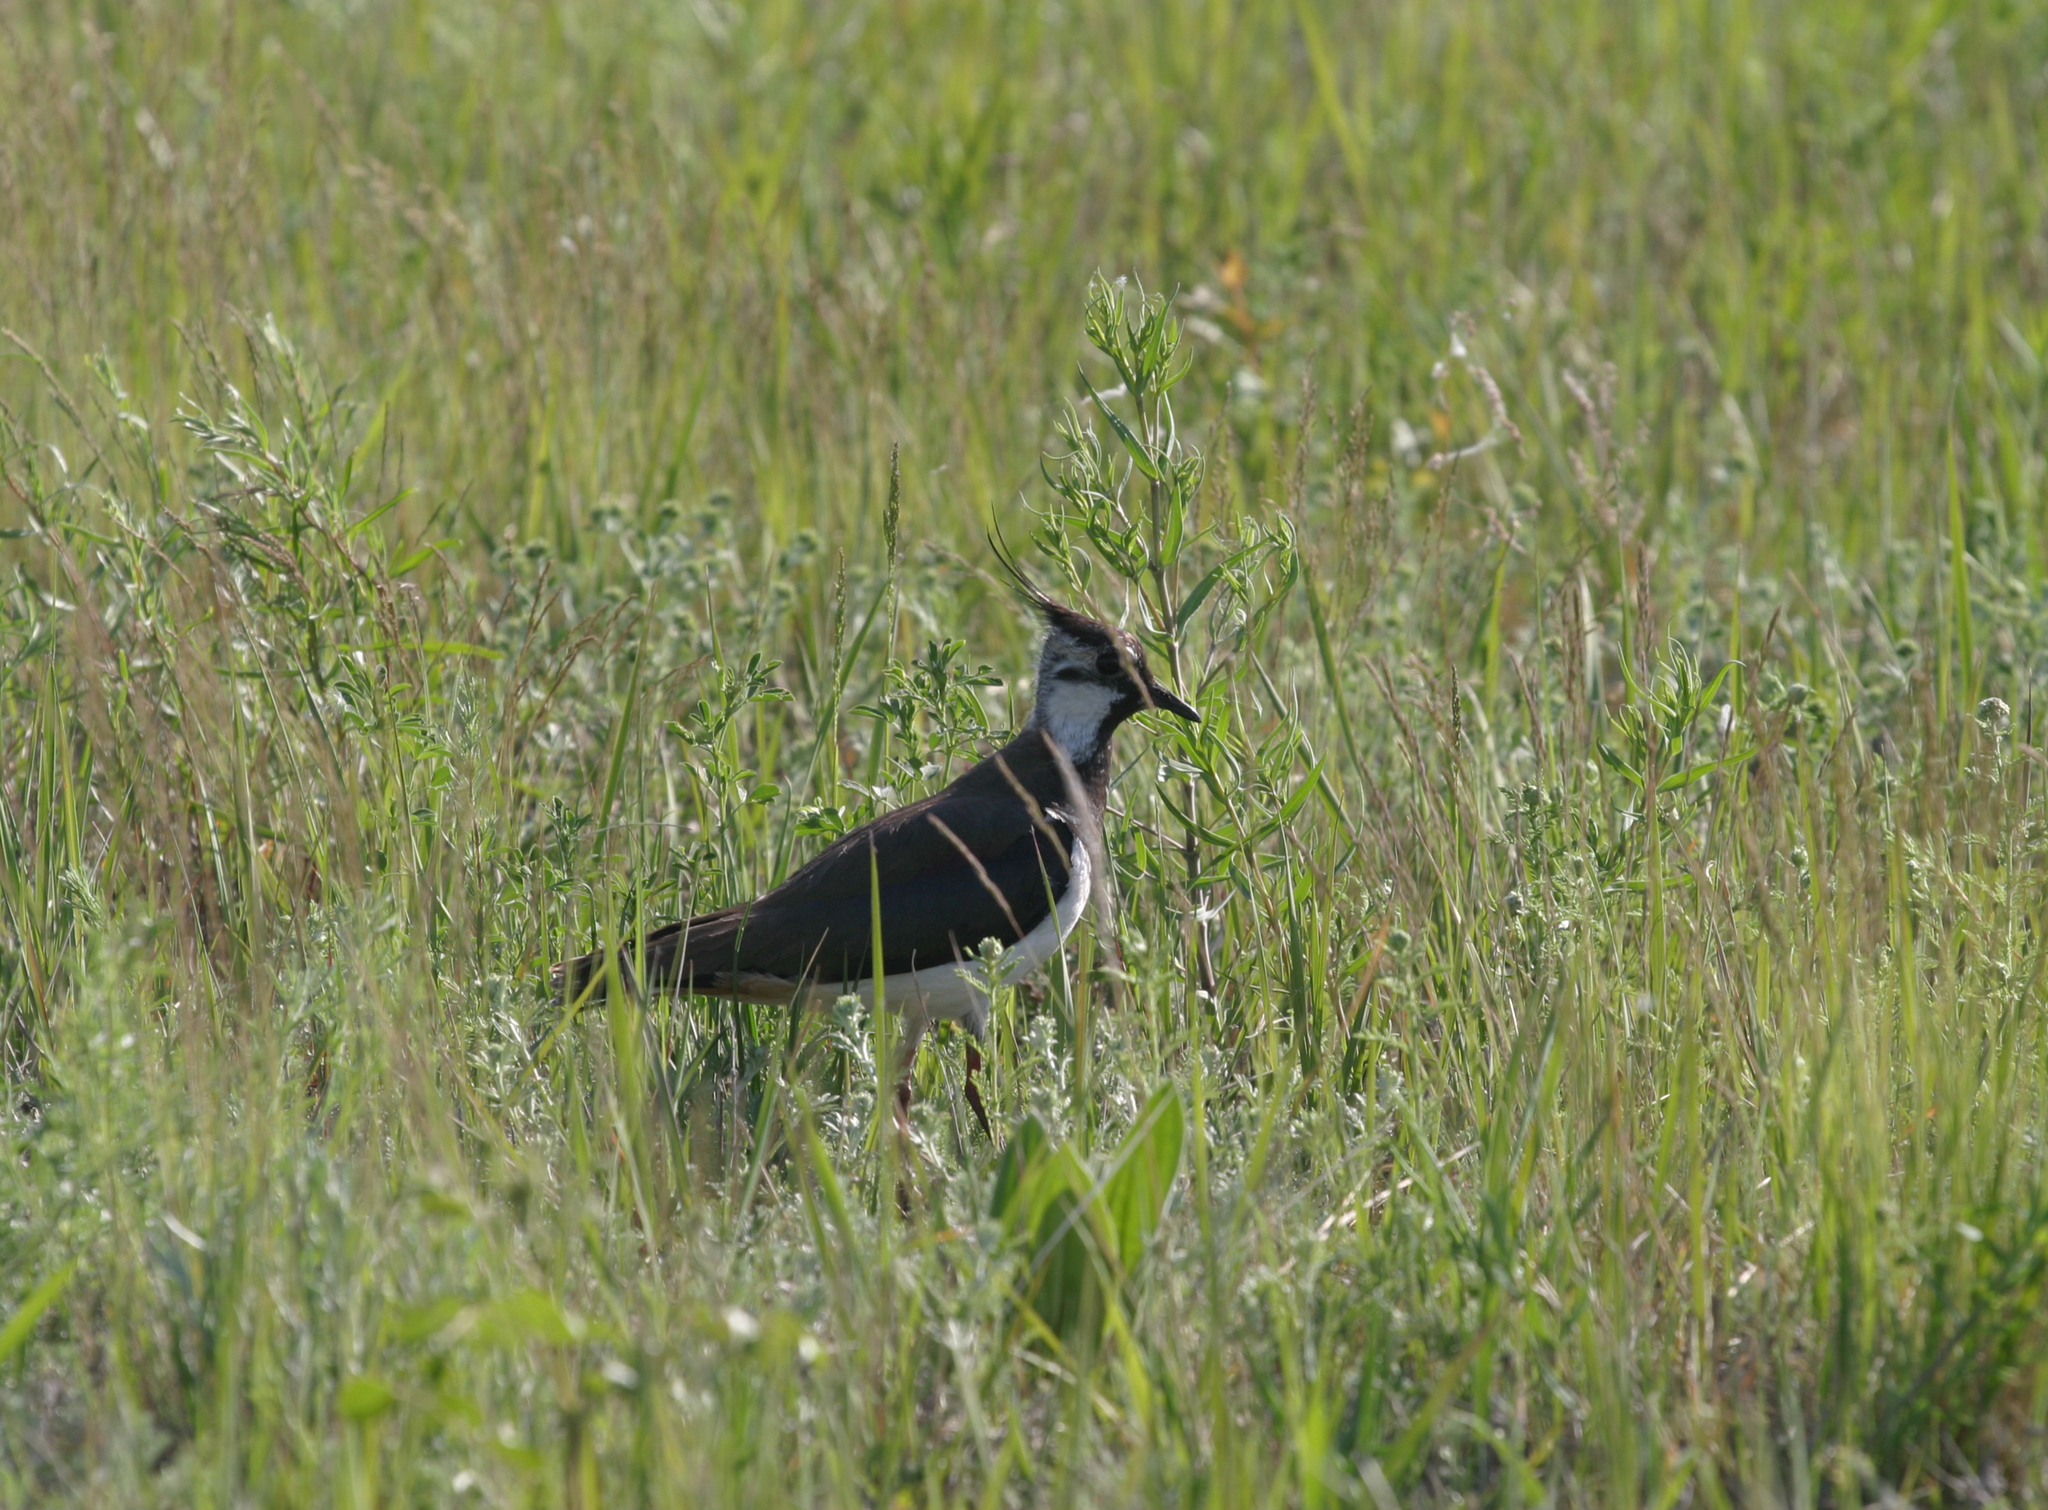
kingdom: Animalia
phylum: Chordata
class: Aves
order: Charadriiformes
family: Charadriidae
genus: Vanellus
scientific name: Vanellus vanellus
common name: Northern lapwing
